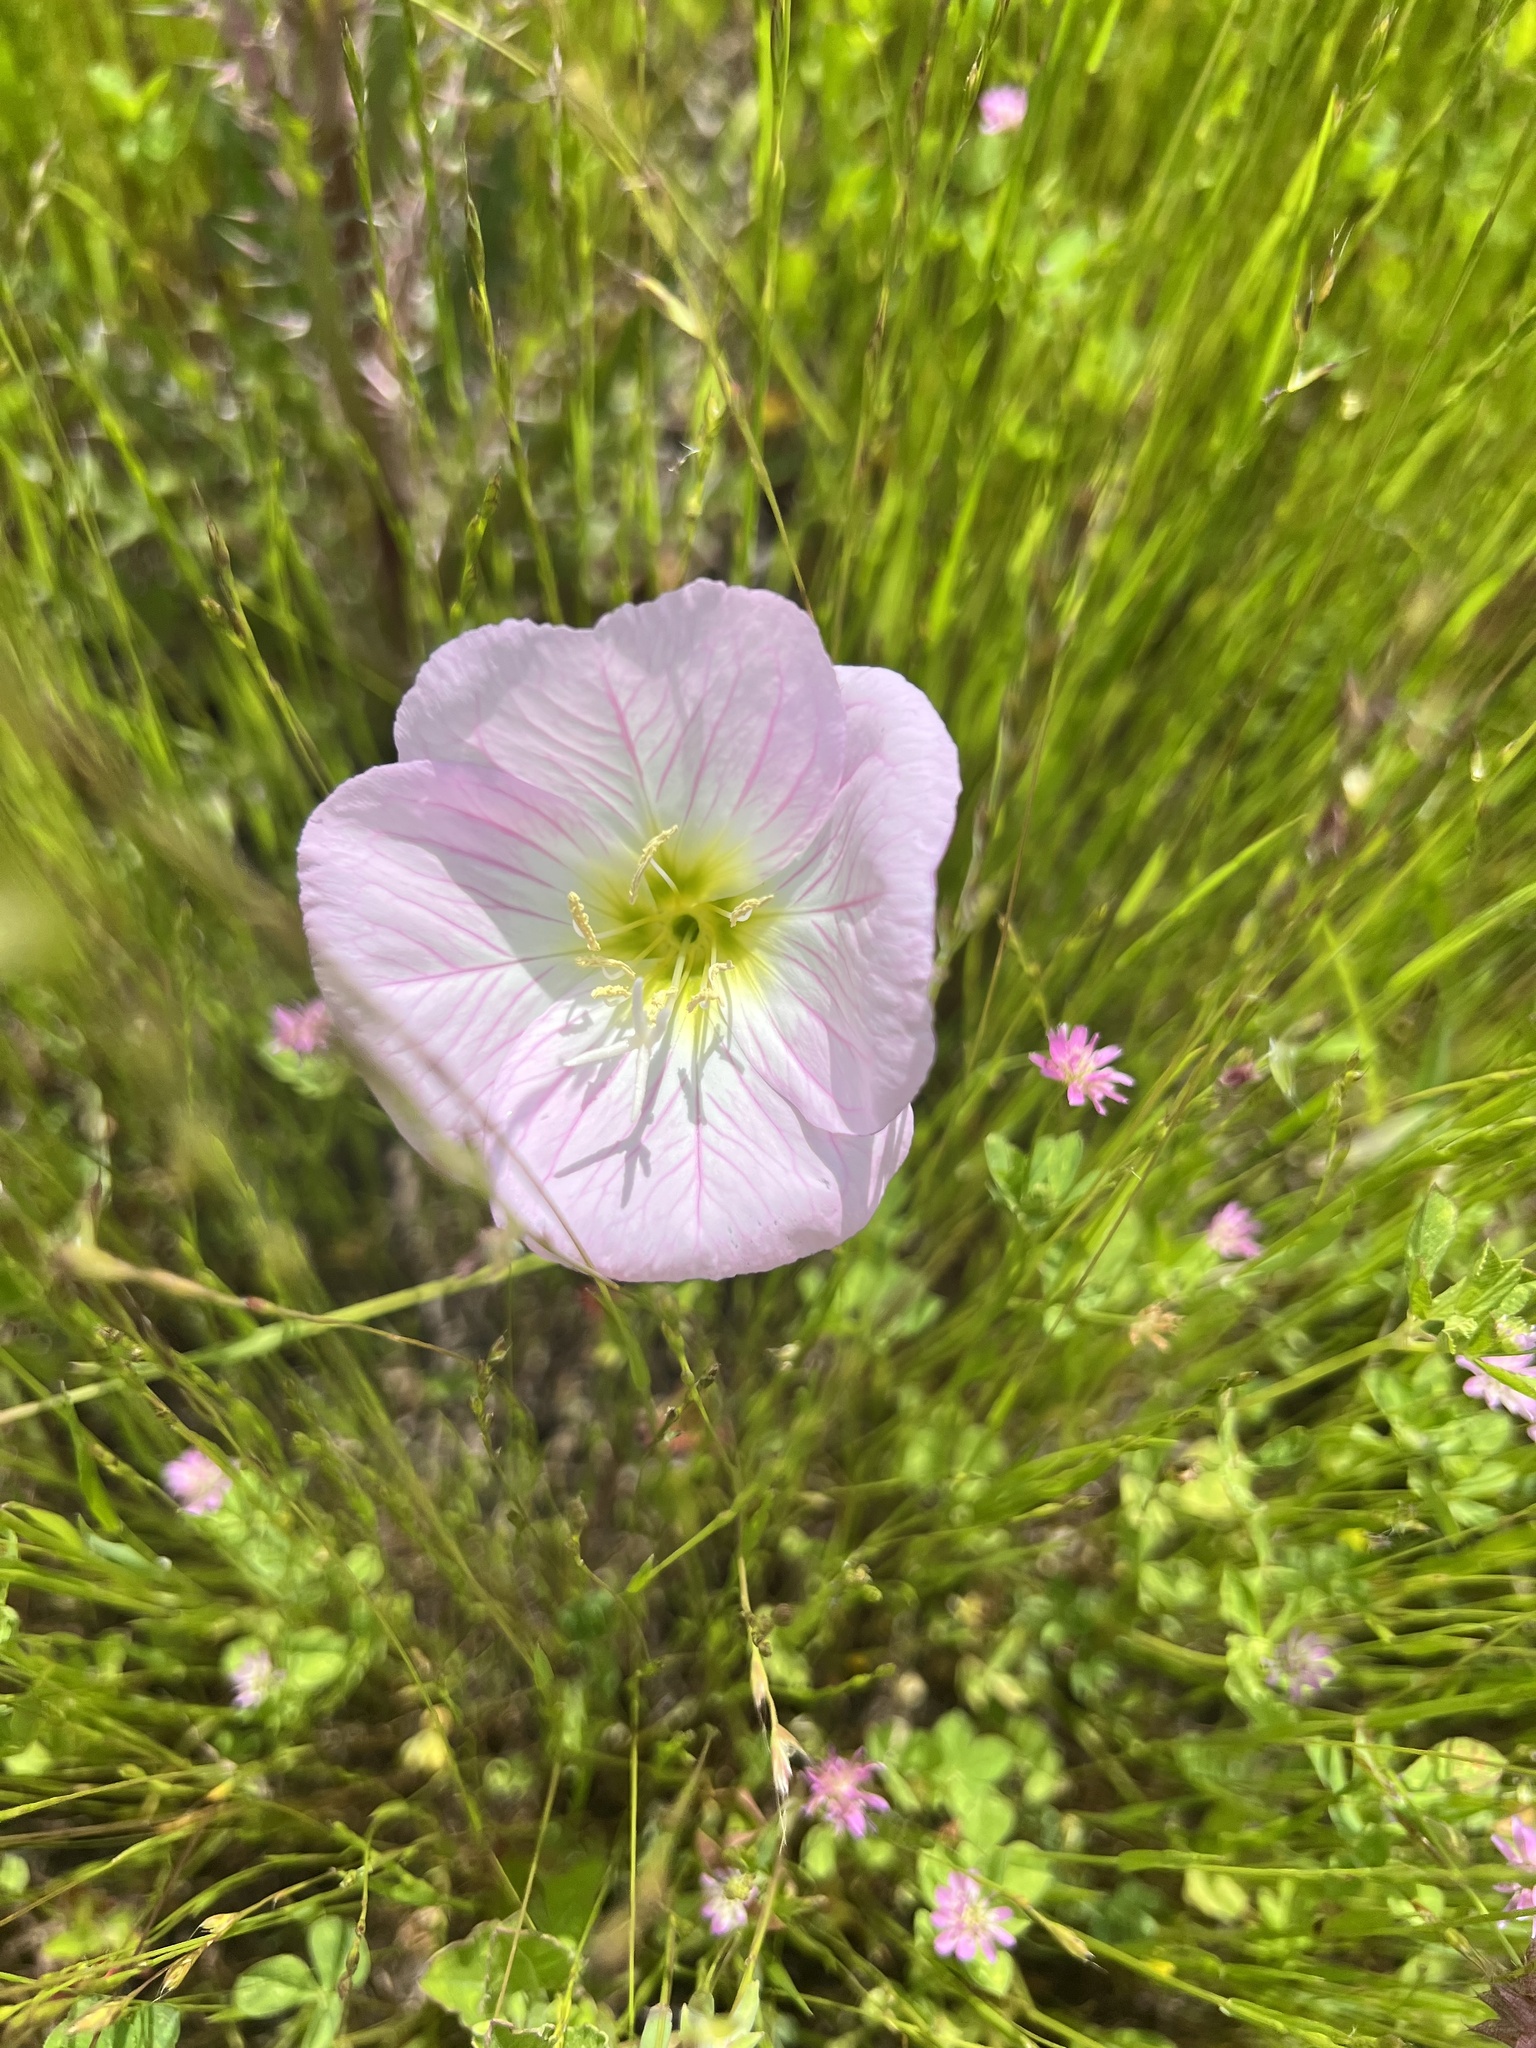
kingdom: Plantae
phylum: Tracheophyta
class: Magnoliopsida
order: Myrtales
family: Onagraceae
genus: Oenothera
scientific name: Oenothera speciosa
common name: White evening-primrose
